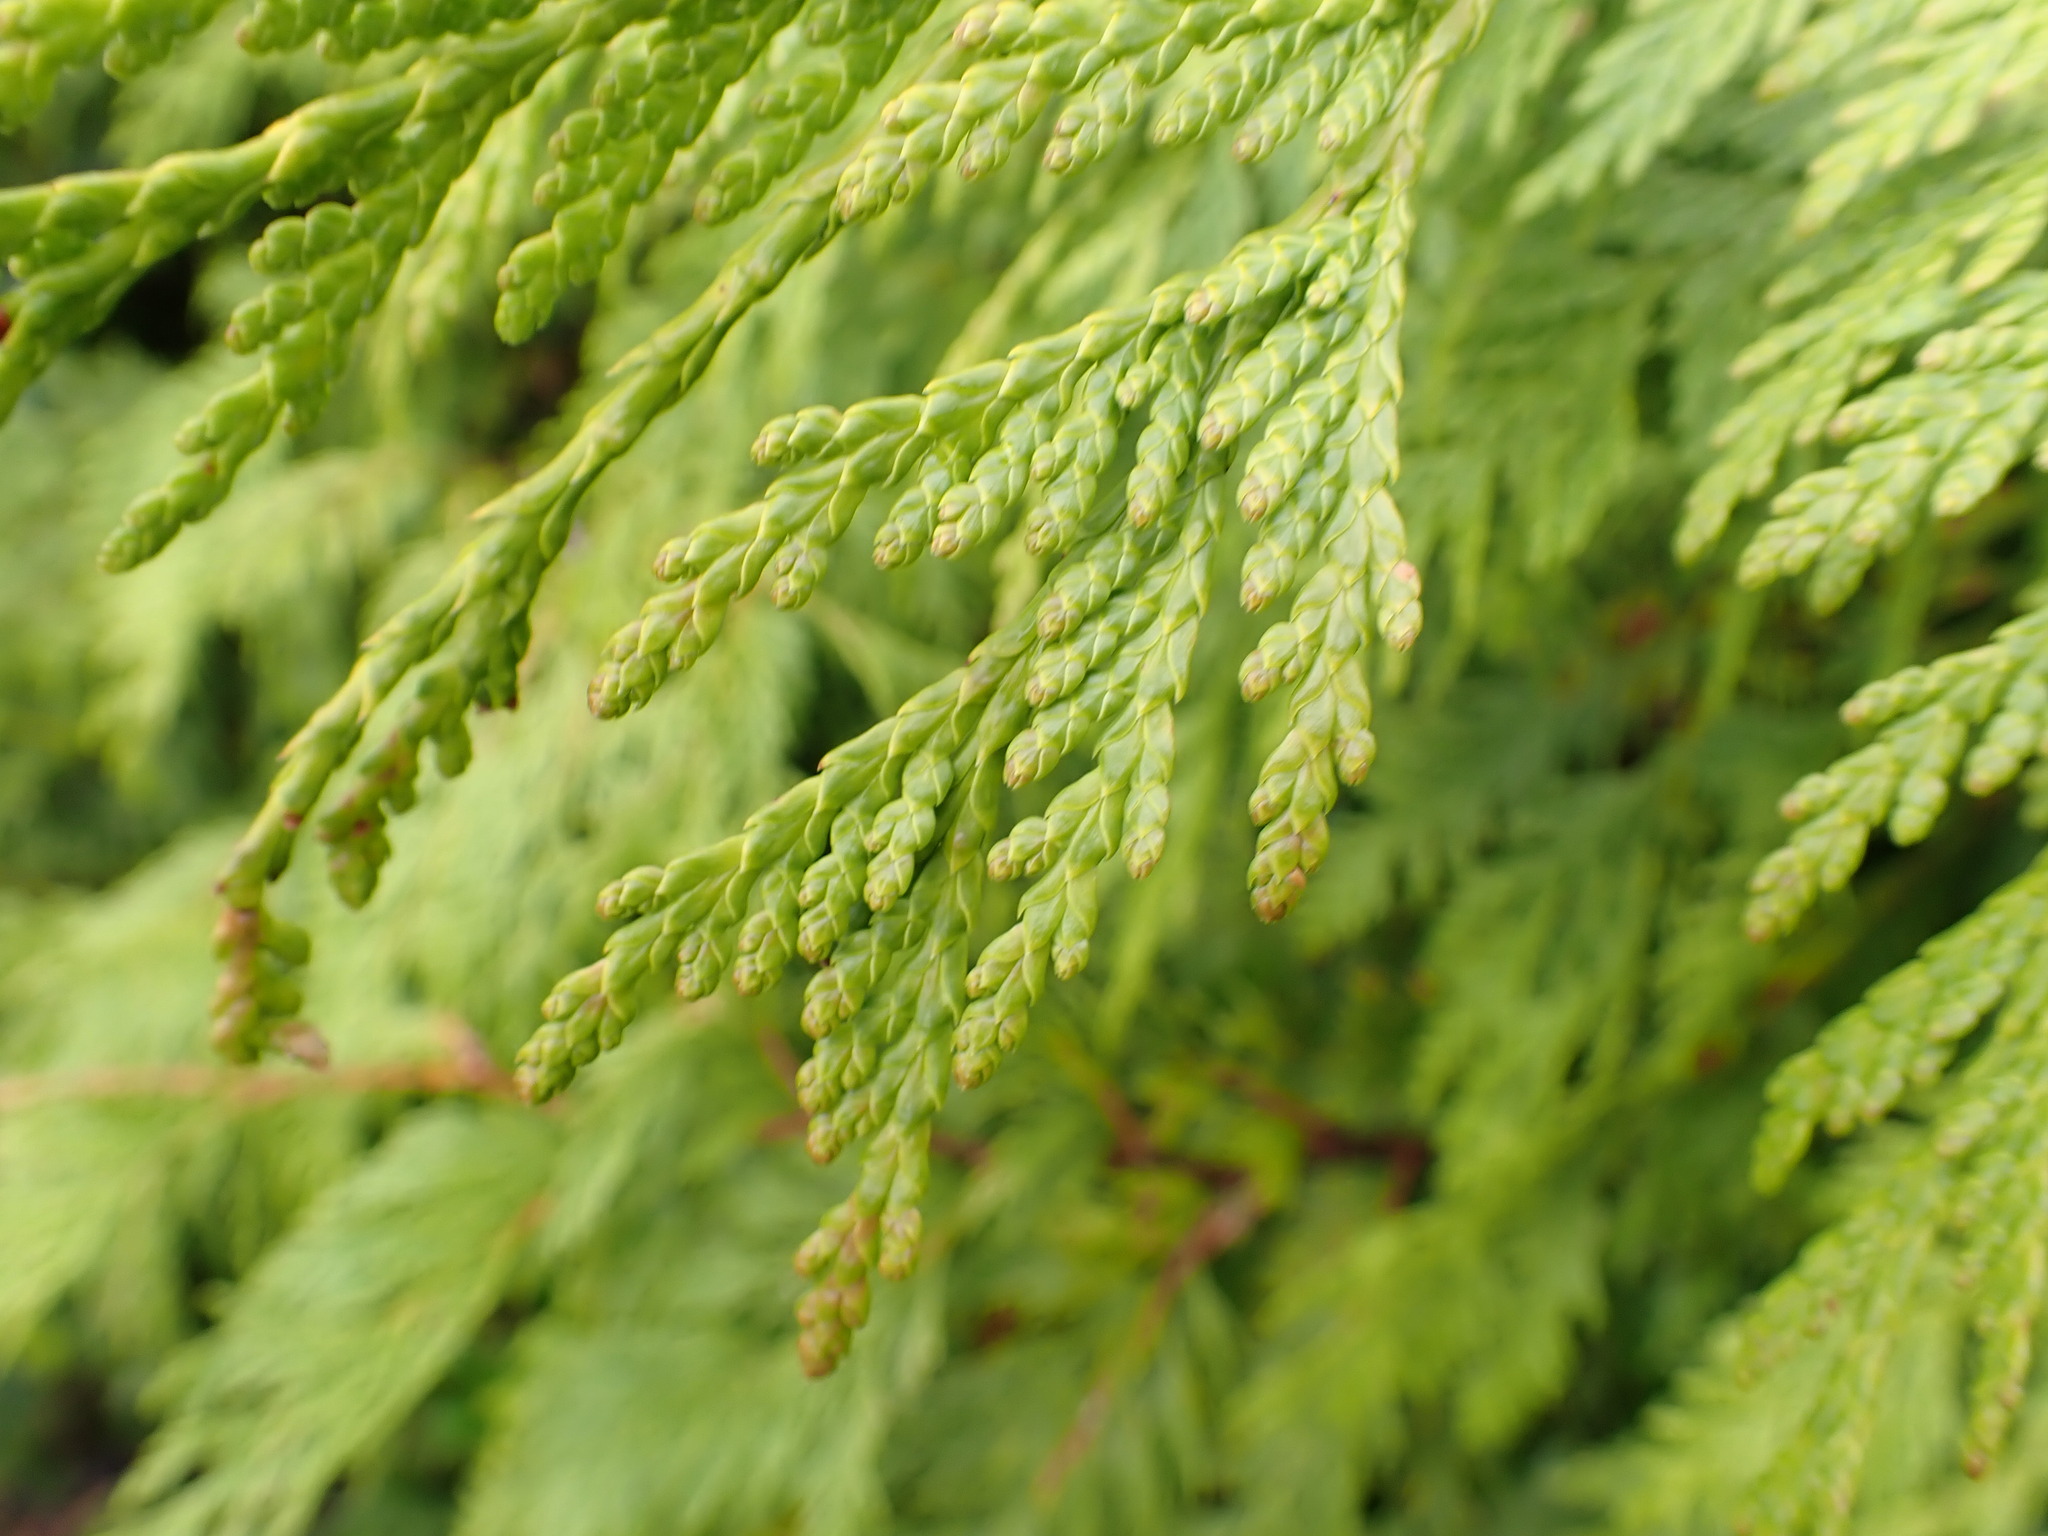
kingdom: Plantae
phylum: Tracheophyta
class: Pinopsida
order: Pinales
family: Cupressaceae
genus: Thuja
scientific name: Thuja plicata
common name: Western red-cedar
